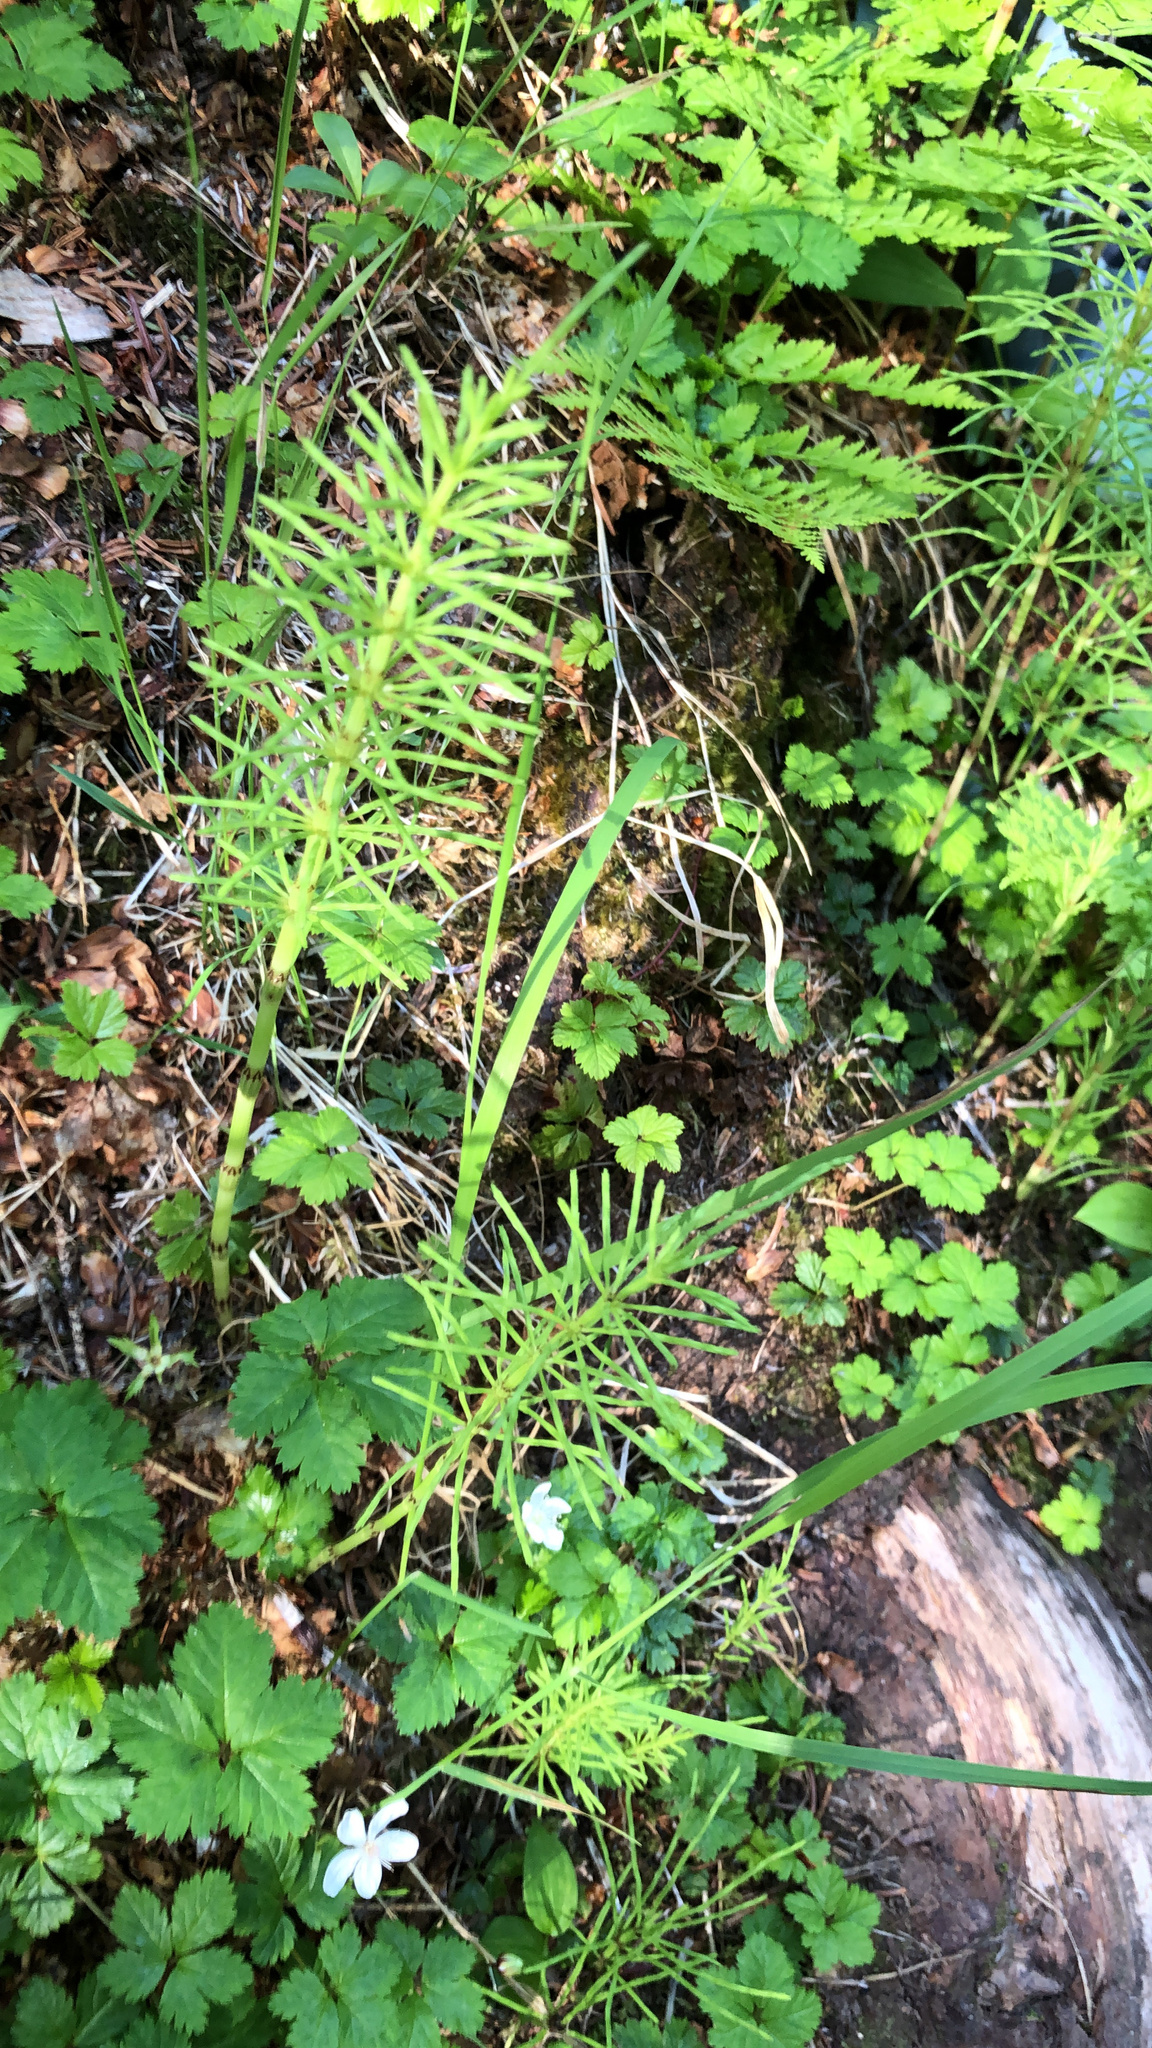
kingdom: Plantae
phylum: Tracheophyta
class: Polypodiopsida
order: Equisetales
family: Equisetaceae
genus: Equisetum
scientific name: Equisetum arvense
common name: Field horsetail
